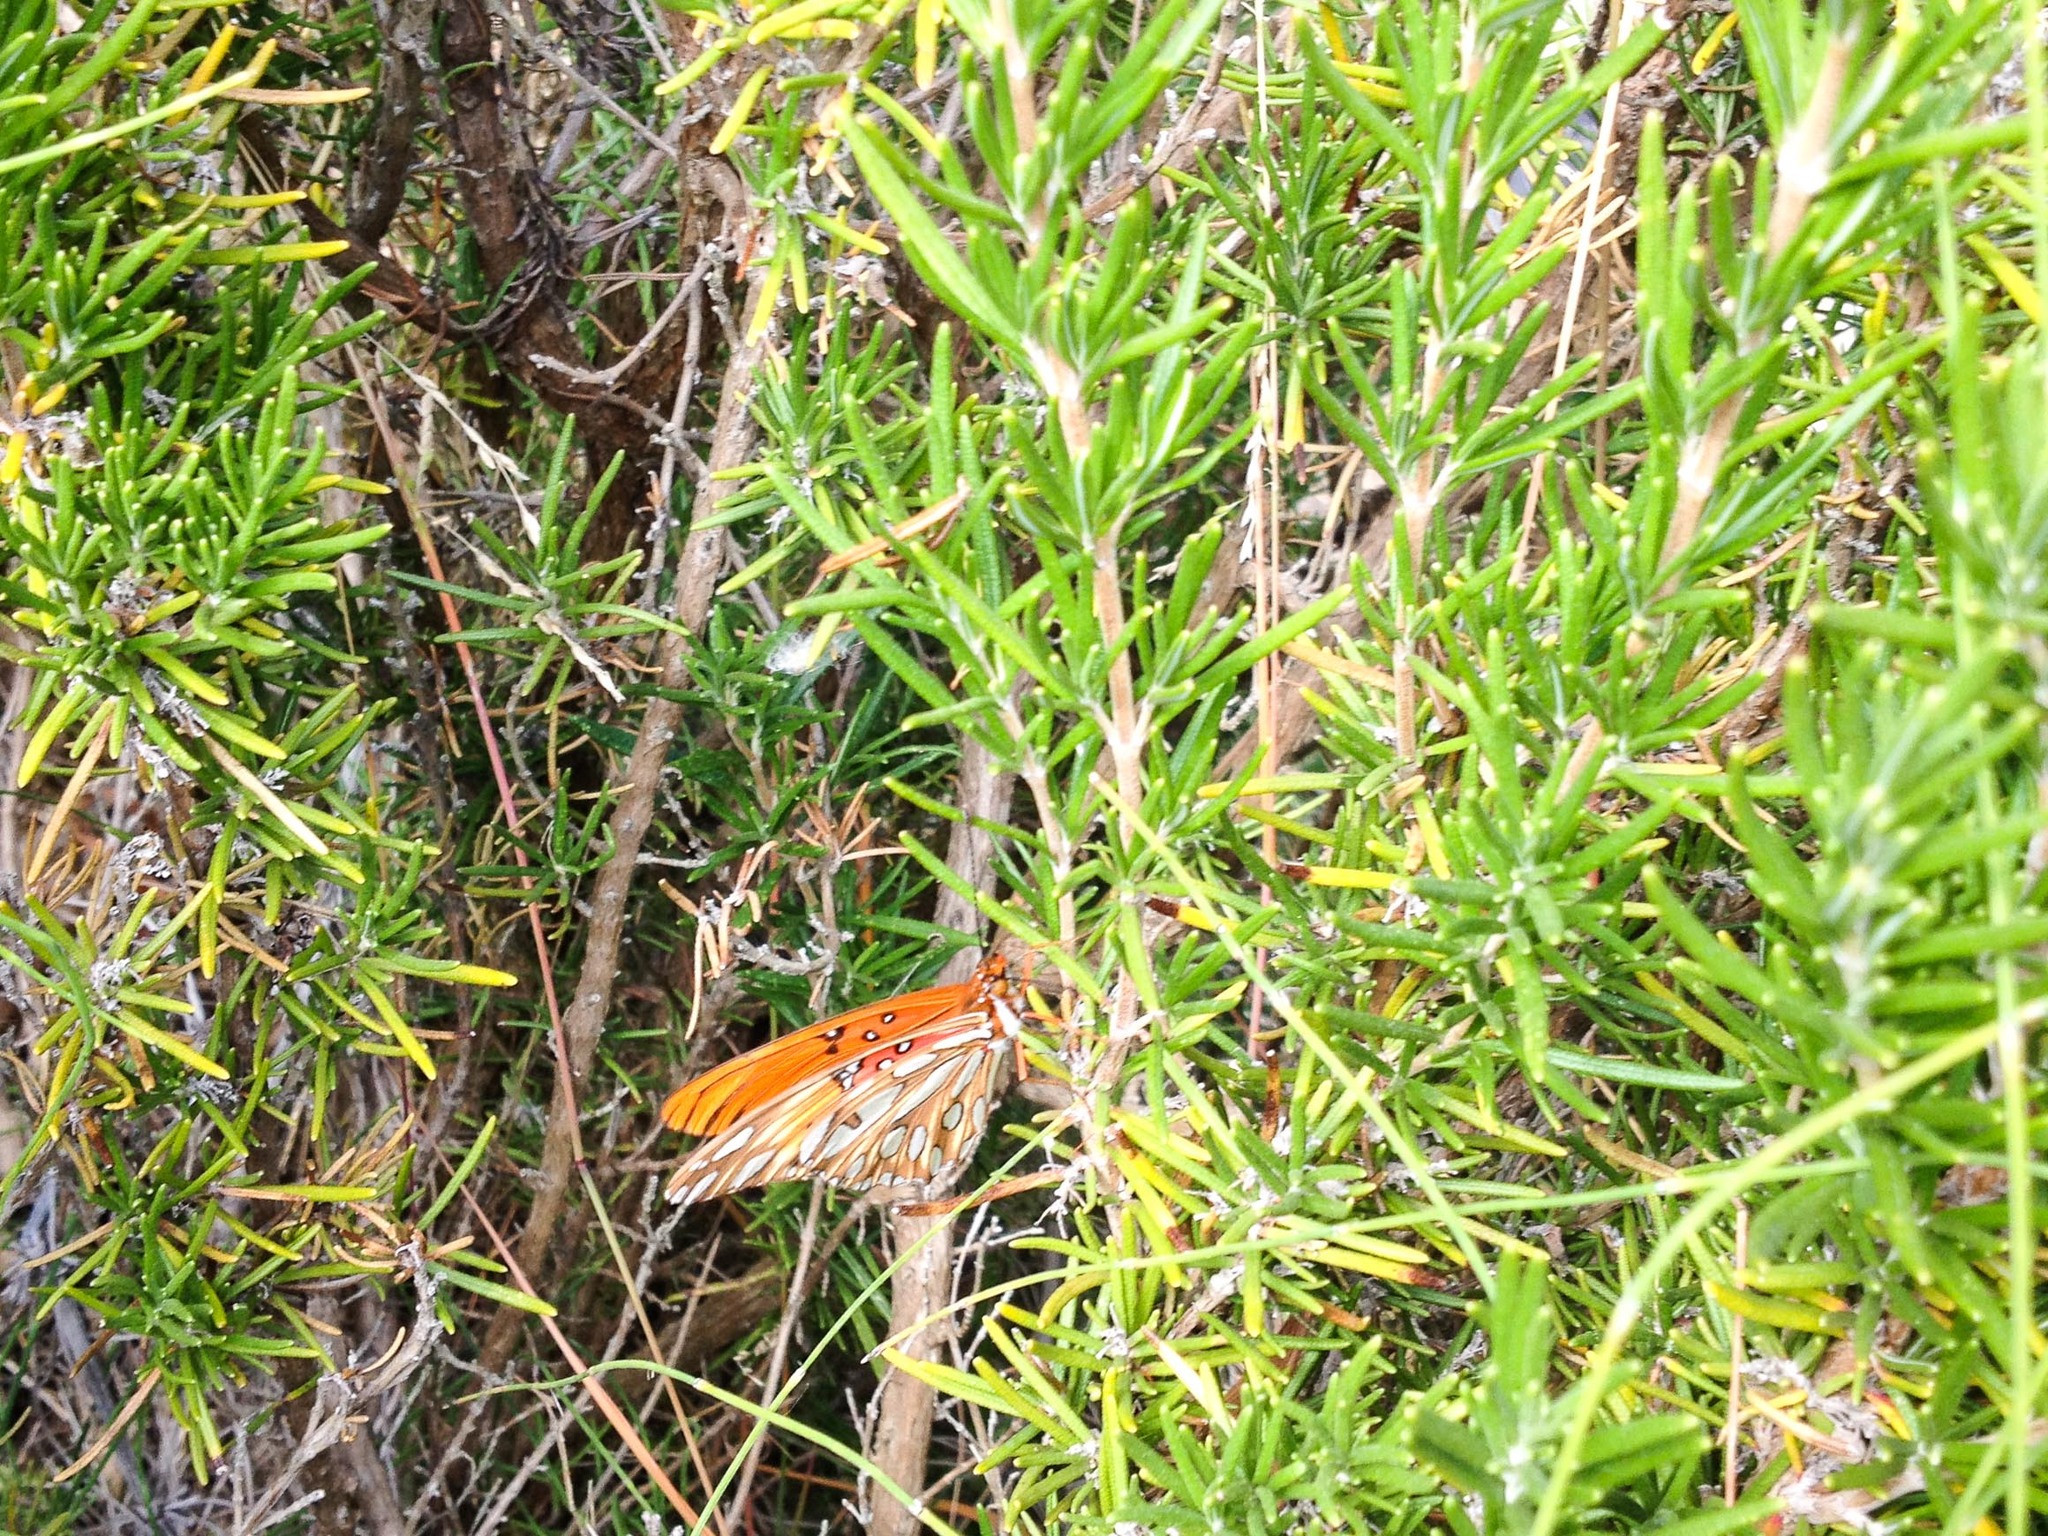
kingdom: Animalia
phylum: Arthropoda
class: Insecta
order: Lepidoptera
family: Nymphalidae
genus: Dione
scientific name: Dione vanillae
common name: Gulf fritillary
